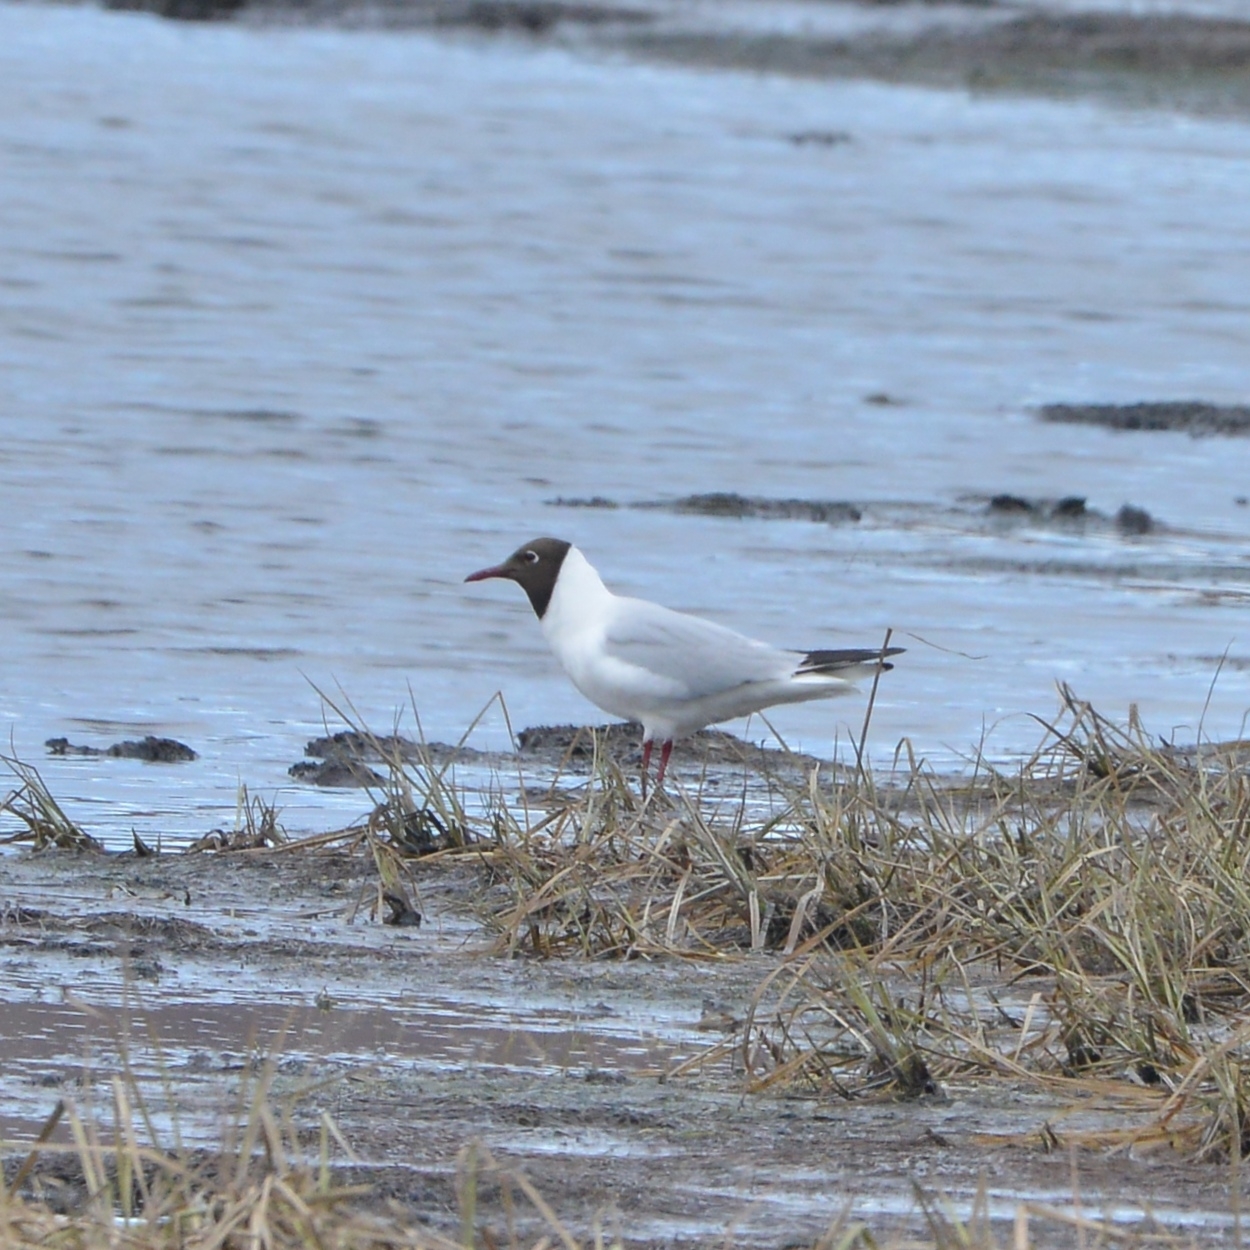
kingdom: Animalia
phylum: Chordata
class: Aves
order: Charadriiformes
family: Laridae
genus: Chroicocephalus
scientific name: Chroicocephalus ridibundus
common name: Black-headed gull
